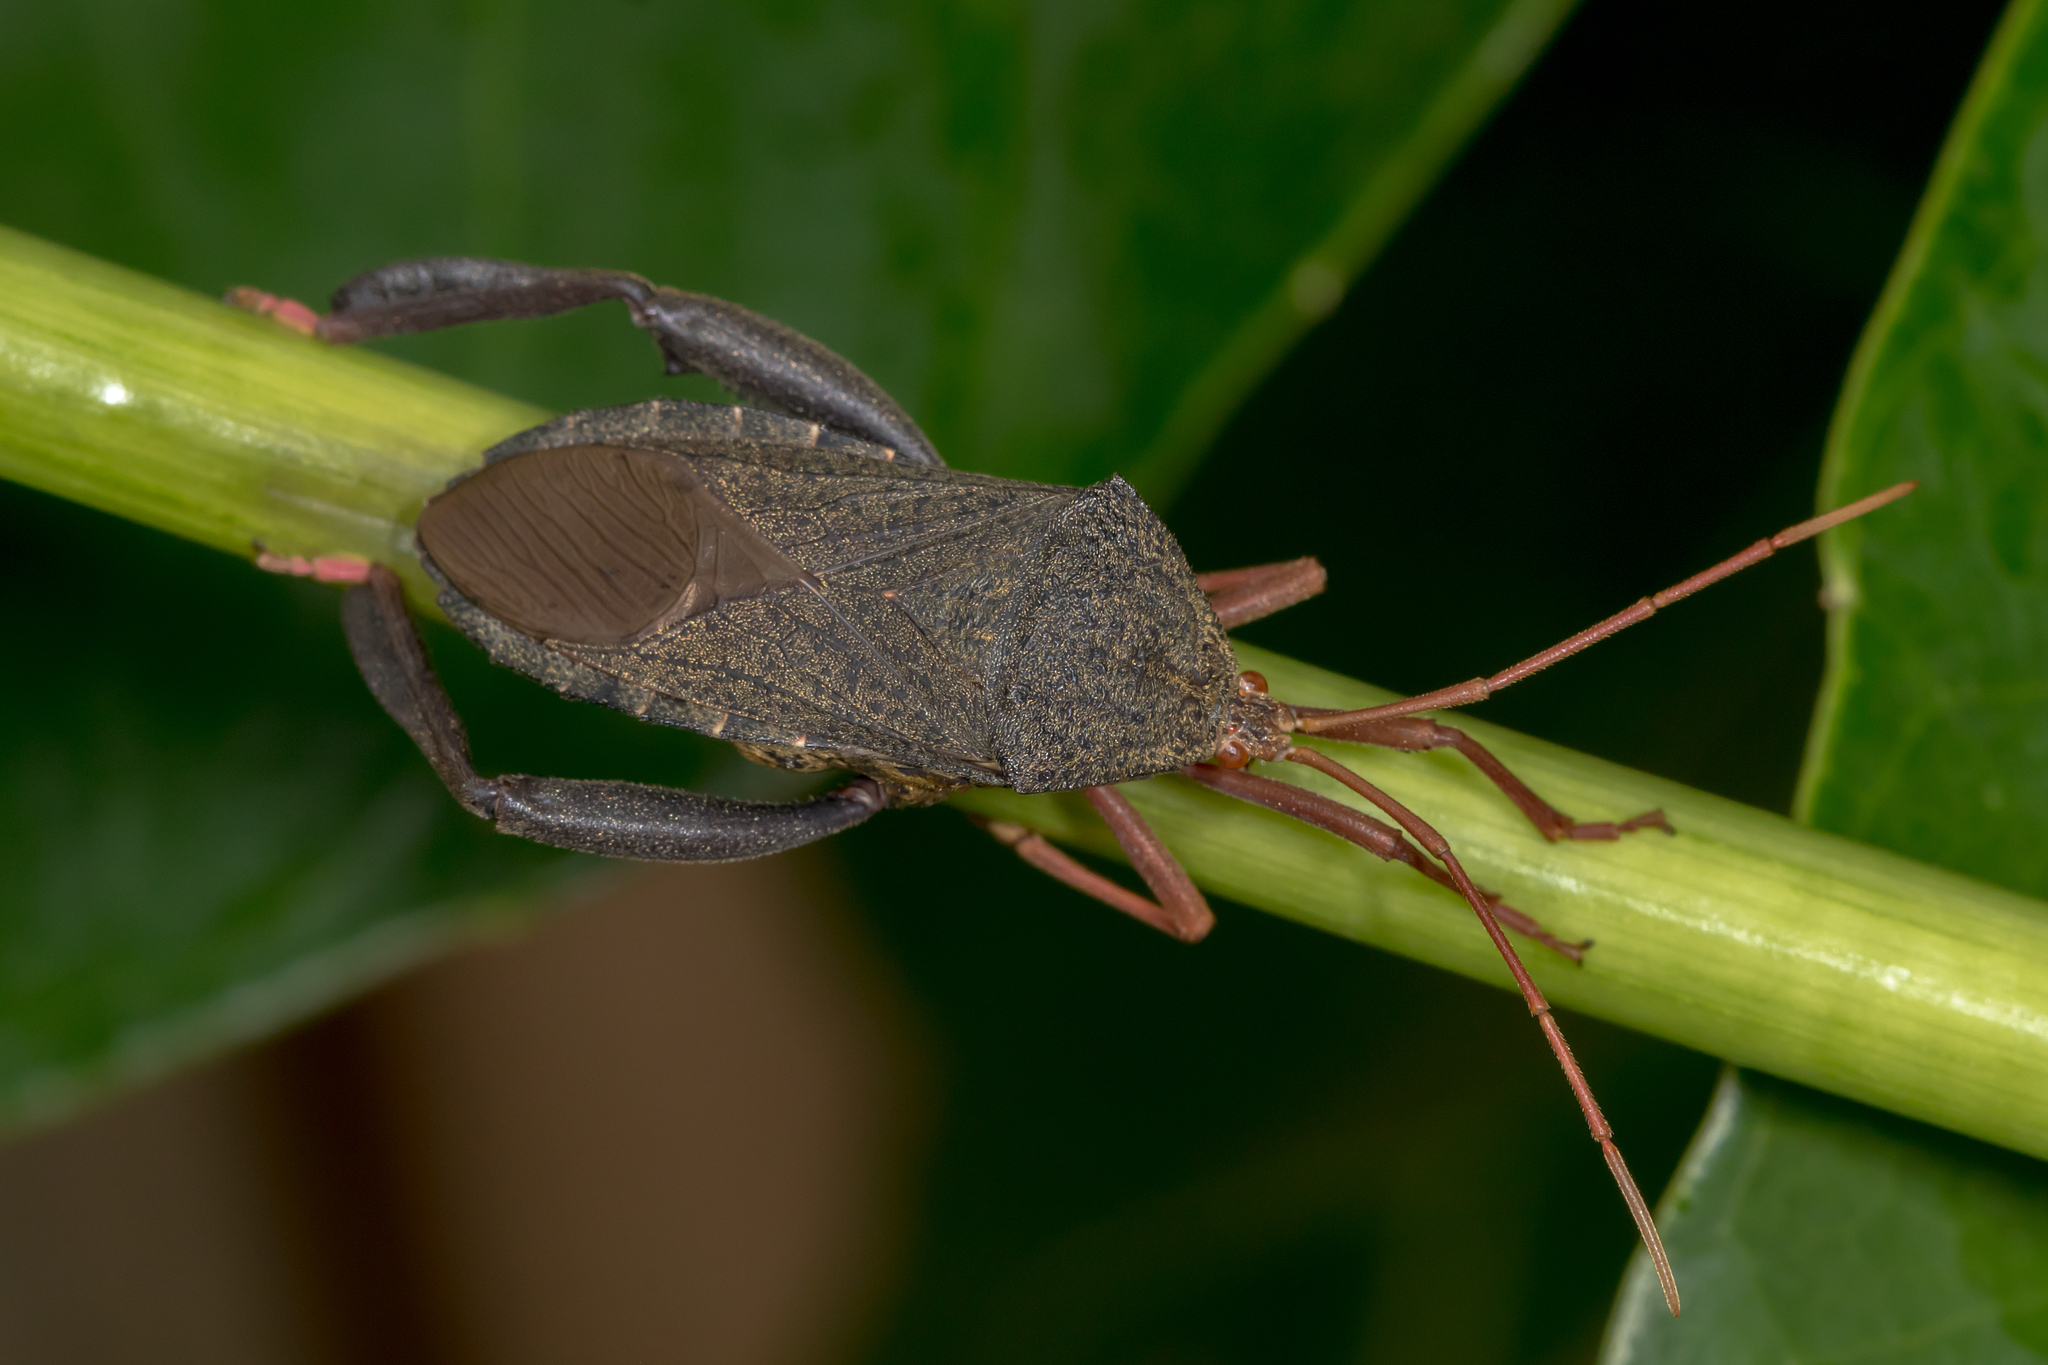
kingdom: Animalia
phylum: Arthropoda
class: Insecta
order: Hemiptera
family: Coreidae
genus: Pternistria
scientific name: Pternistria bispina
